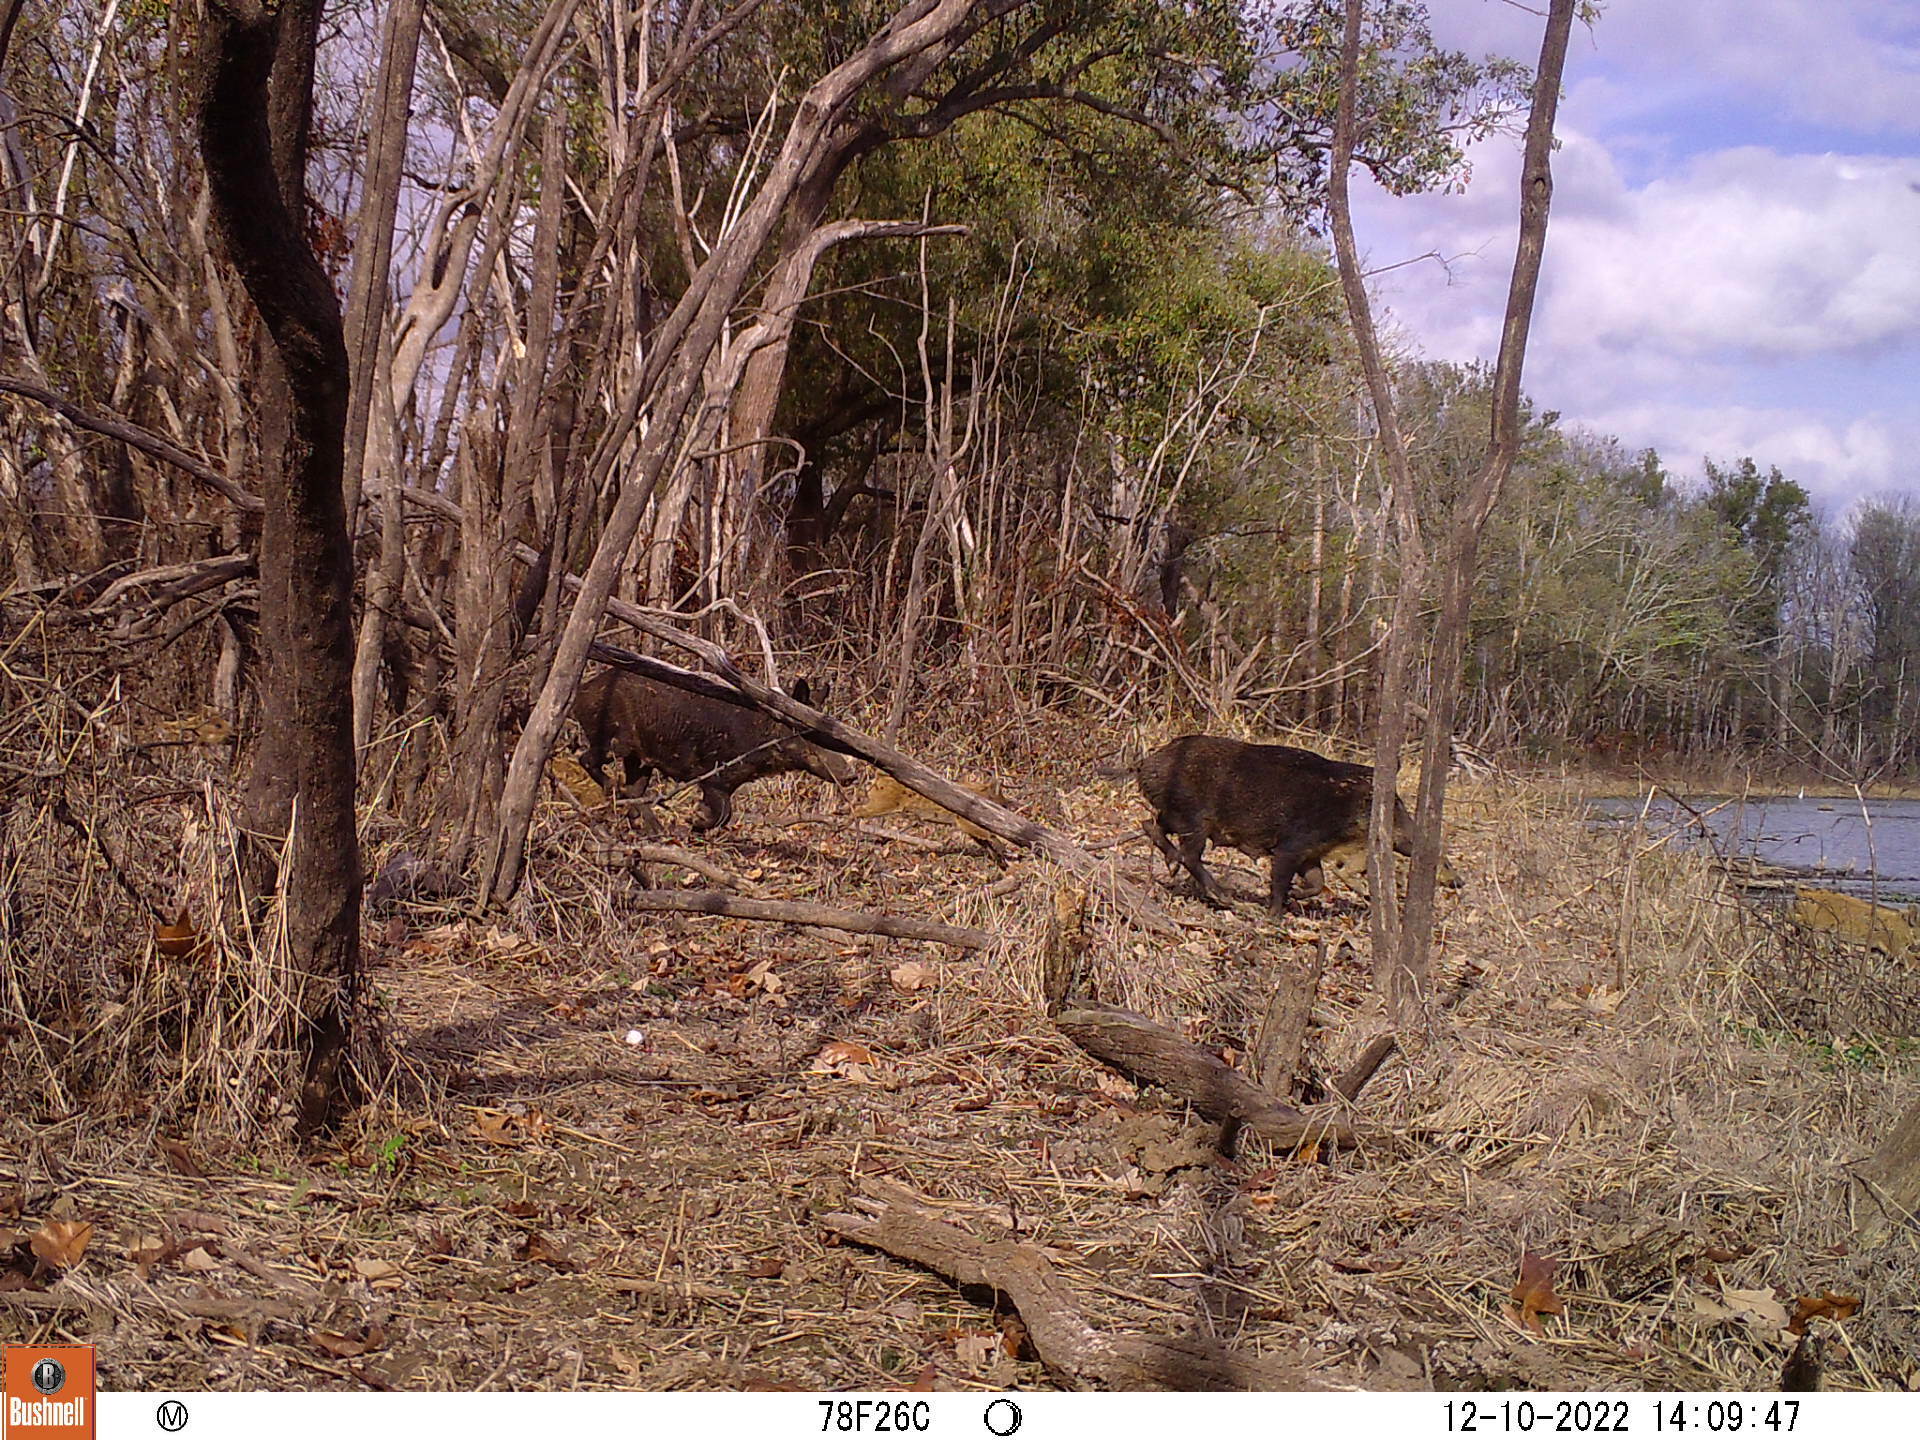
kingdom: Animalia
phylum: Chordata
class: Mammalia
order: Artiodactyla
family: Suidae
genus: Sus
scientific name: Sus scrofa
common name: Wild boar
